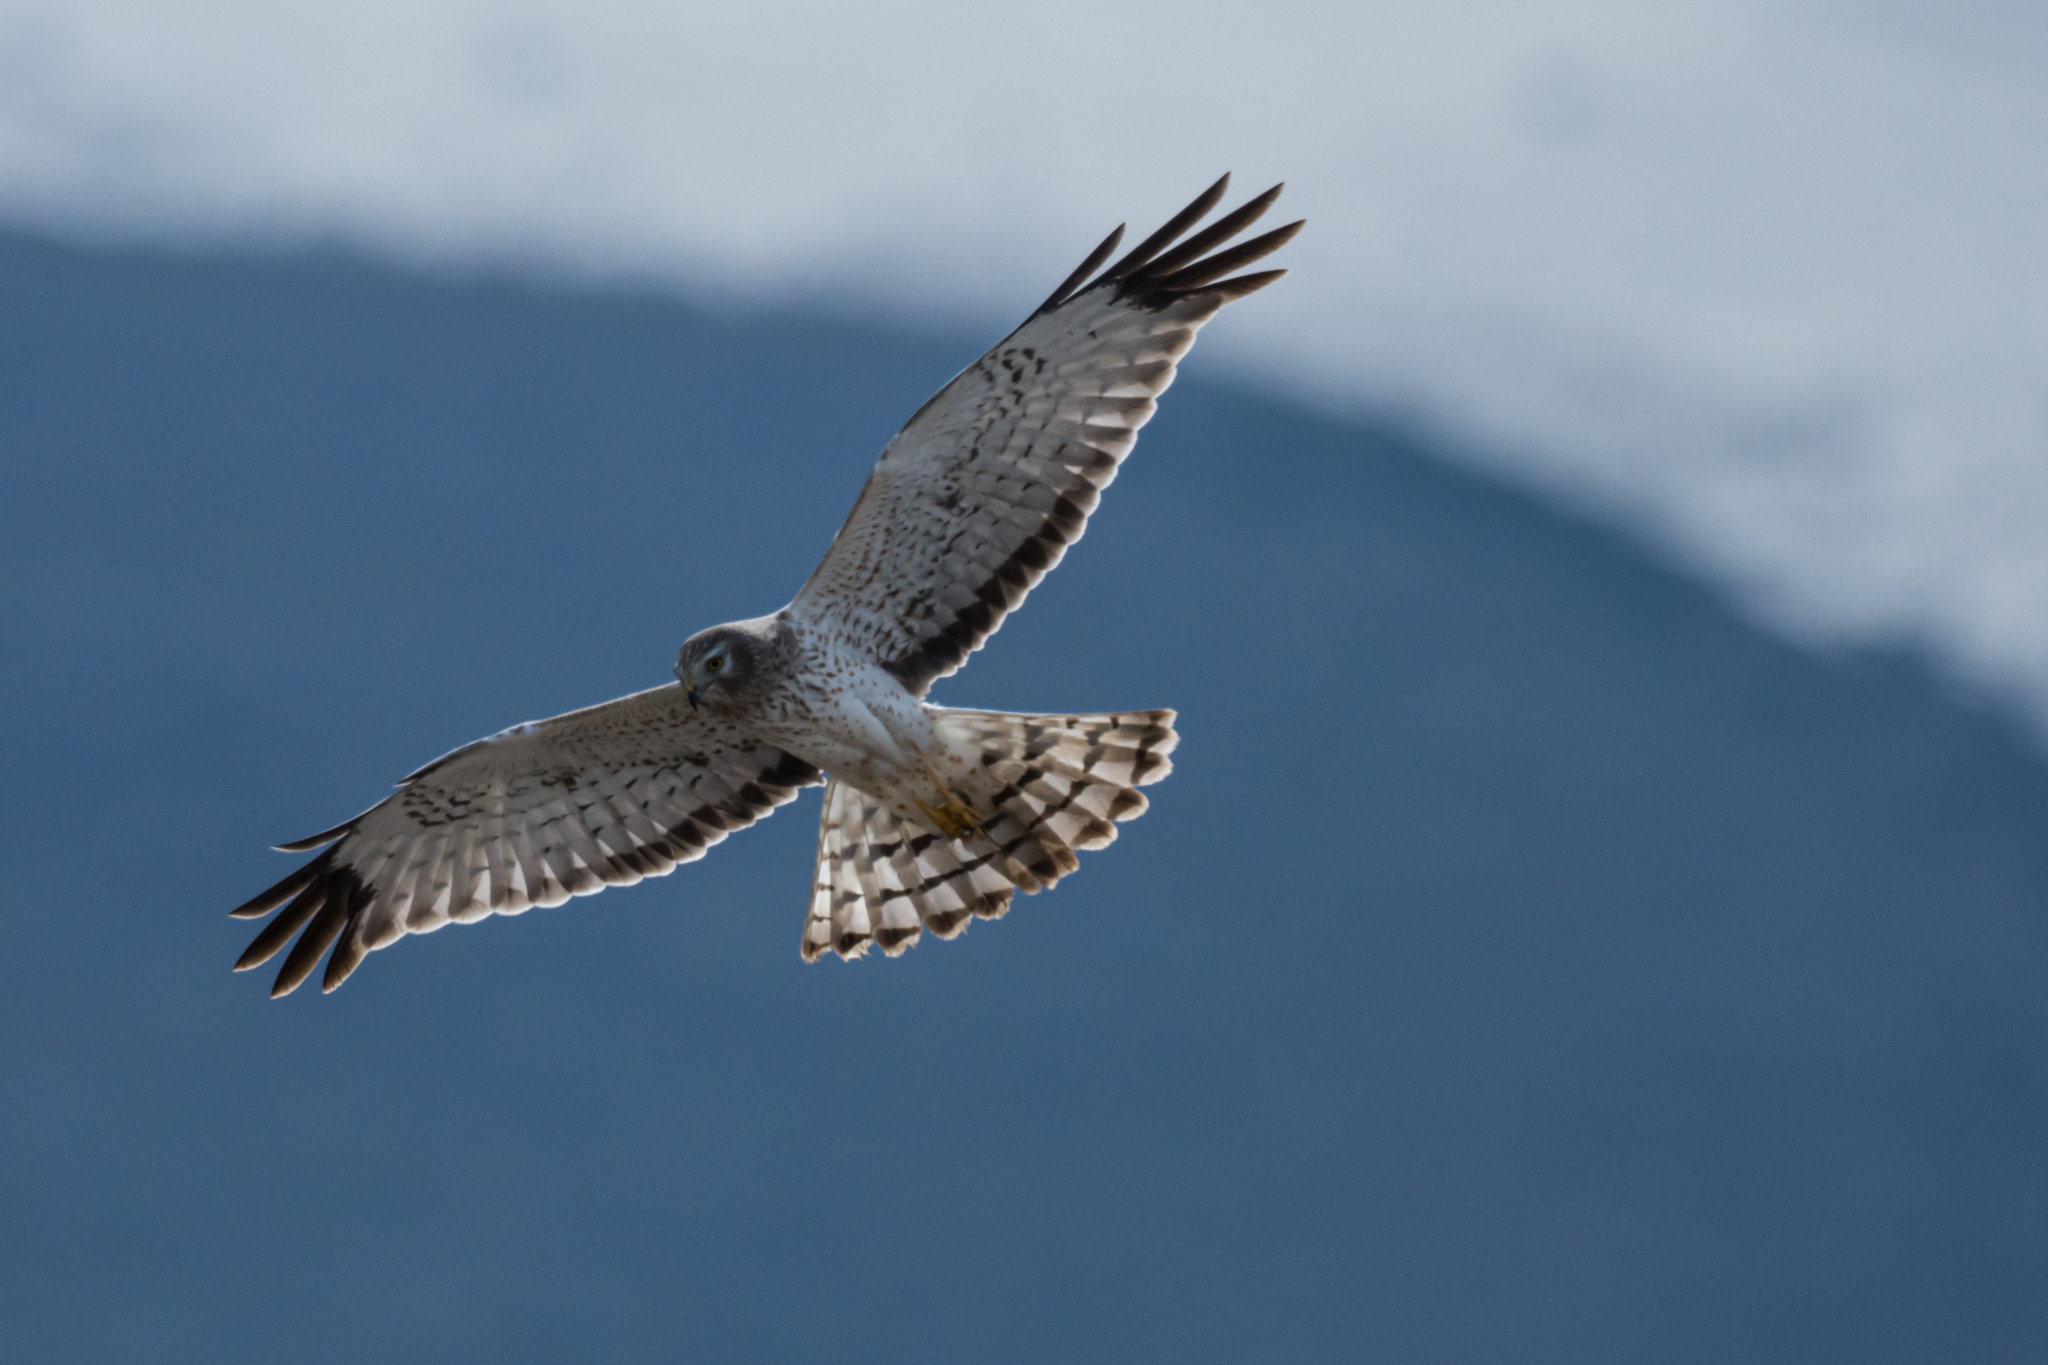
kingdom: Animalia
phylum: Chordata
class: Aves
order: Accipitriformes
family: Accipitridae
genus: Circus
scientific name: Circus cyaneus
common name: Hen harrier
